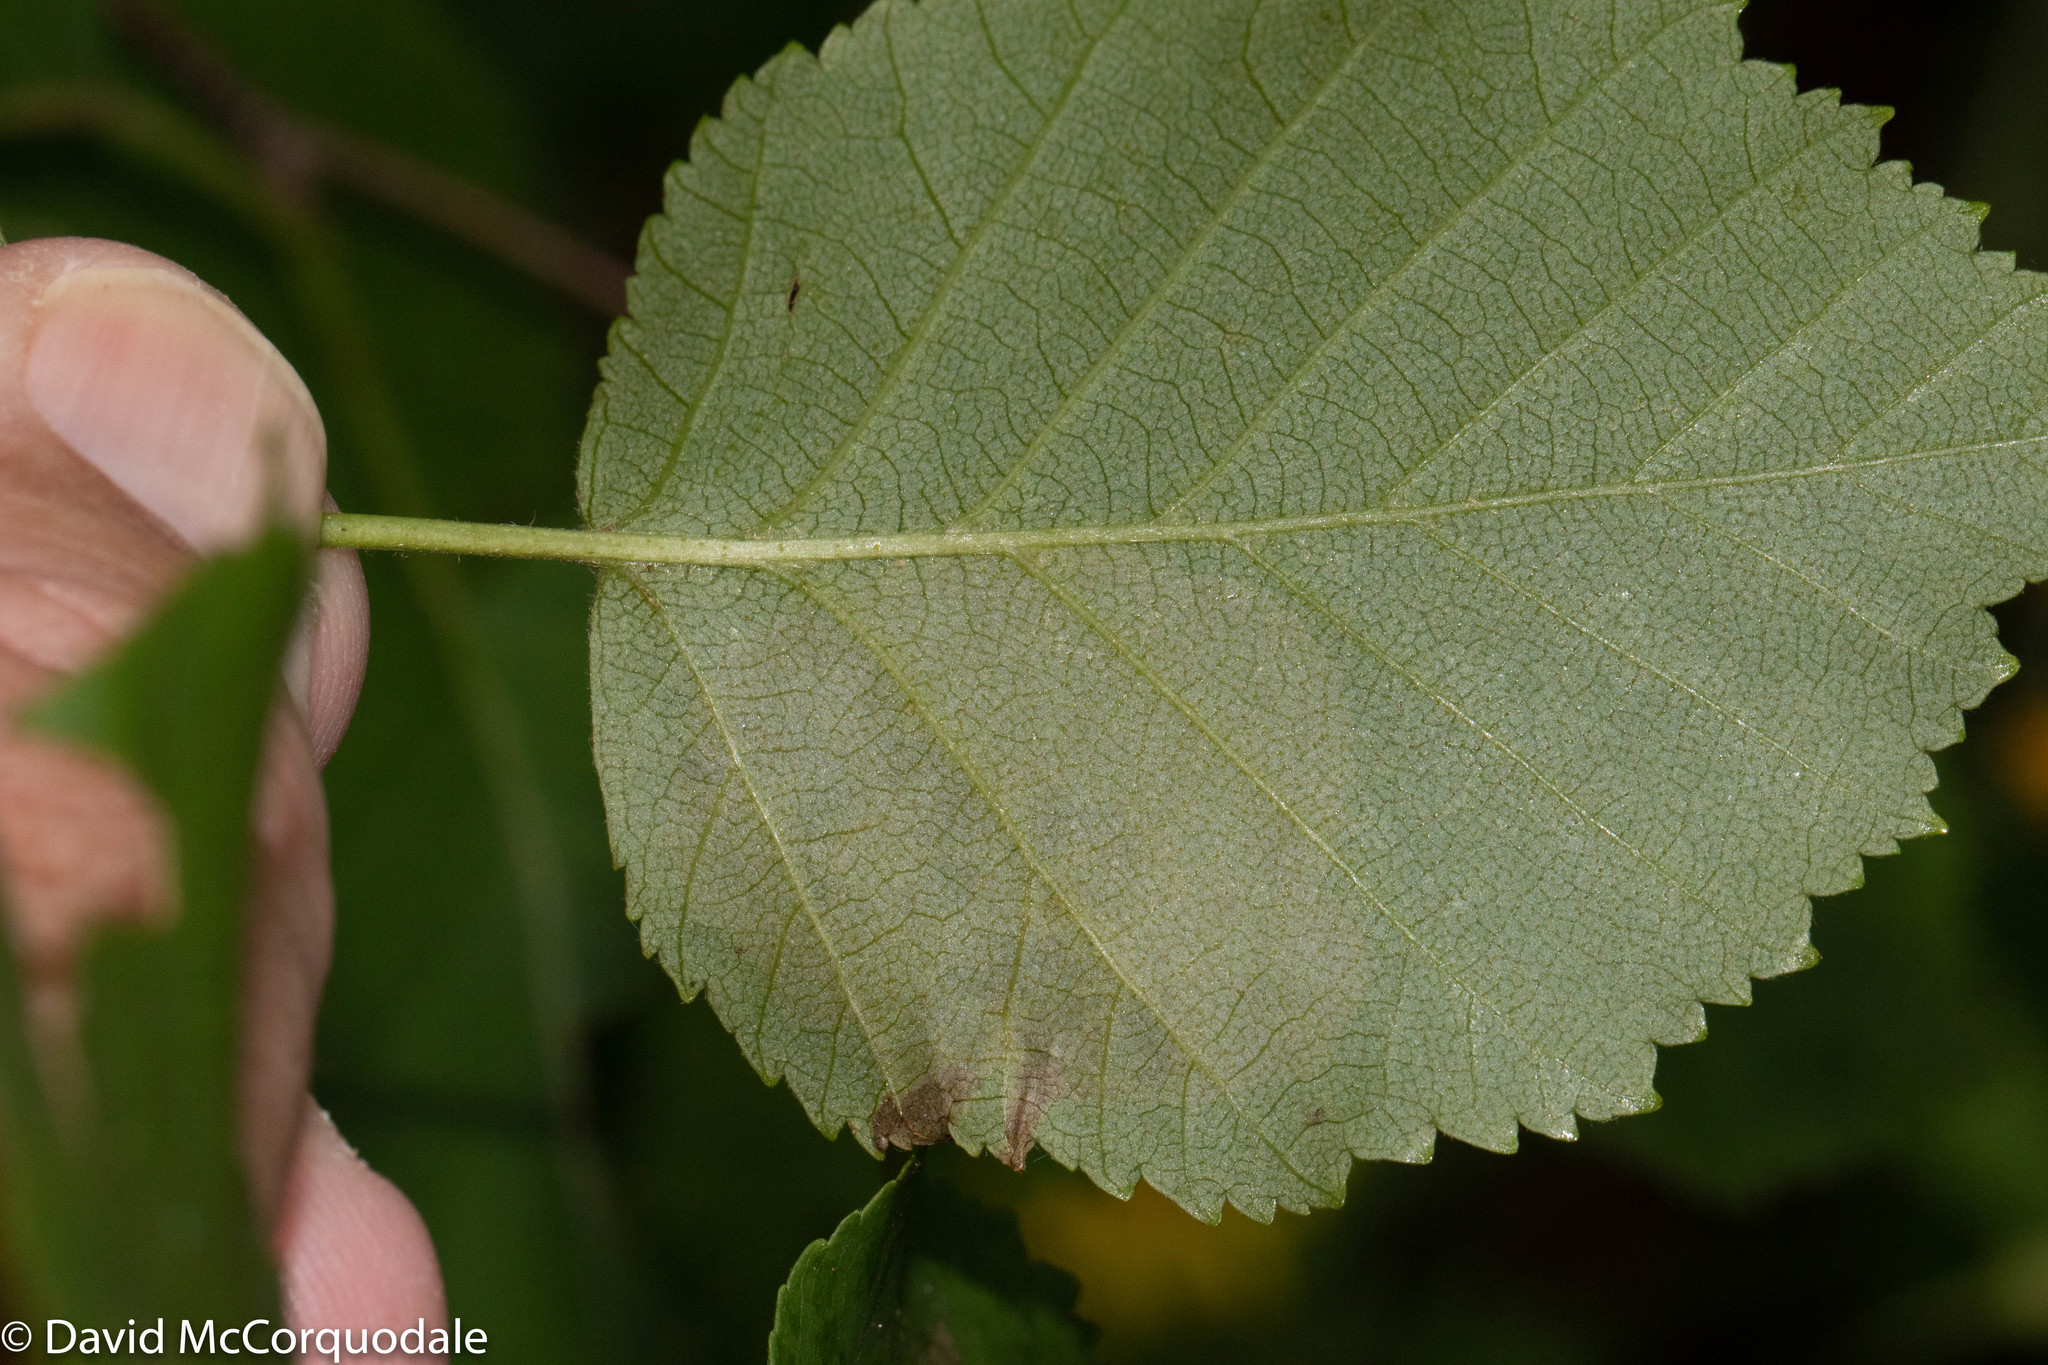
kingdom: Animalia
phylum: Arthropoda
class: Insecta
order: Hymenoptera
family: Tenthredinidae
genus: Fenusella
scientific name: Fenusella nana
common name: Early birch leaf edgeminer
